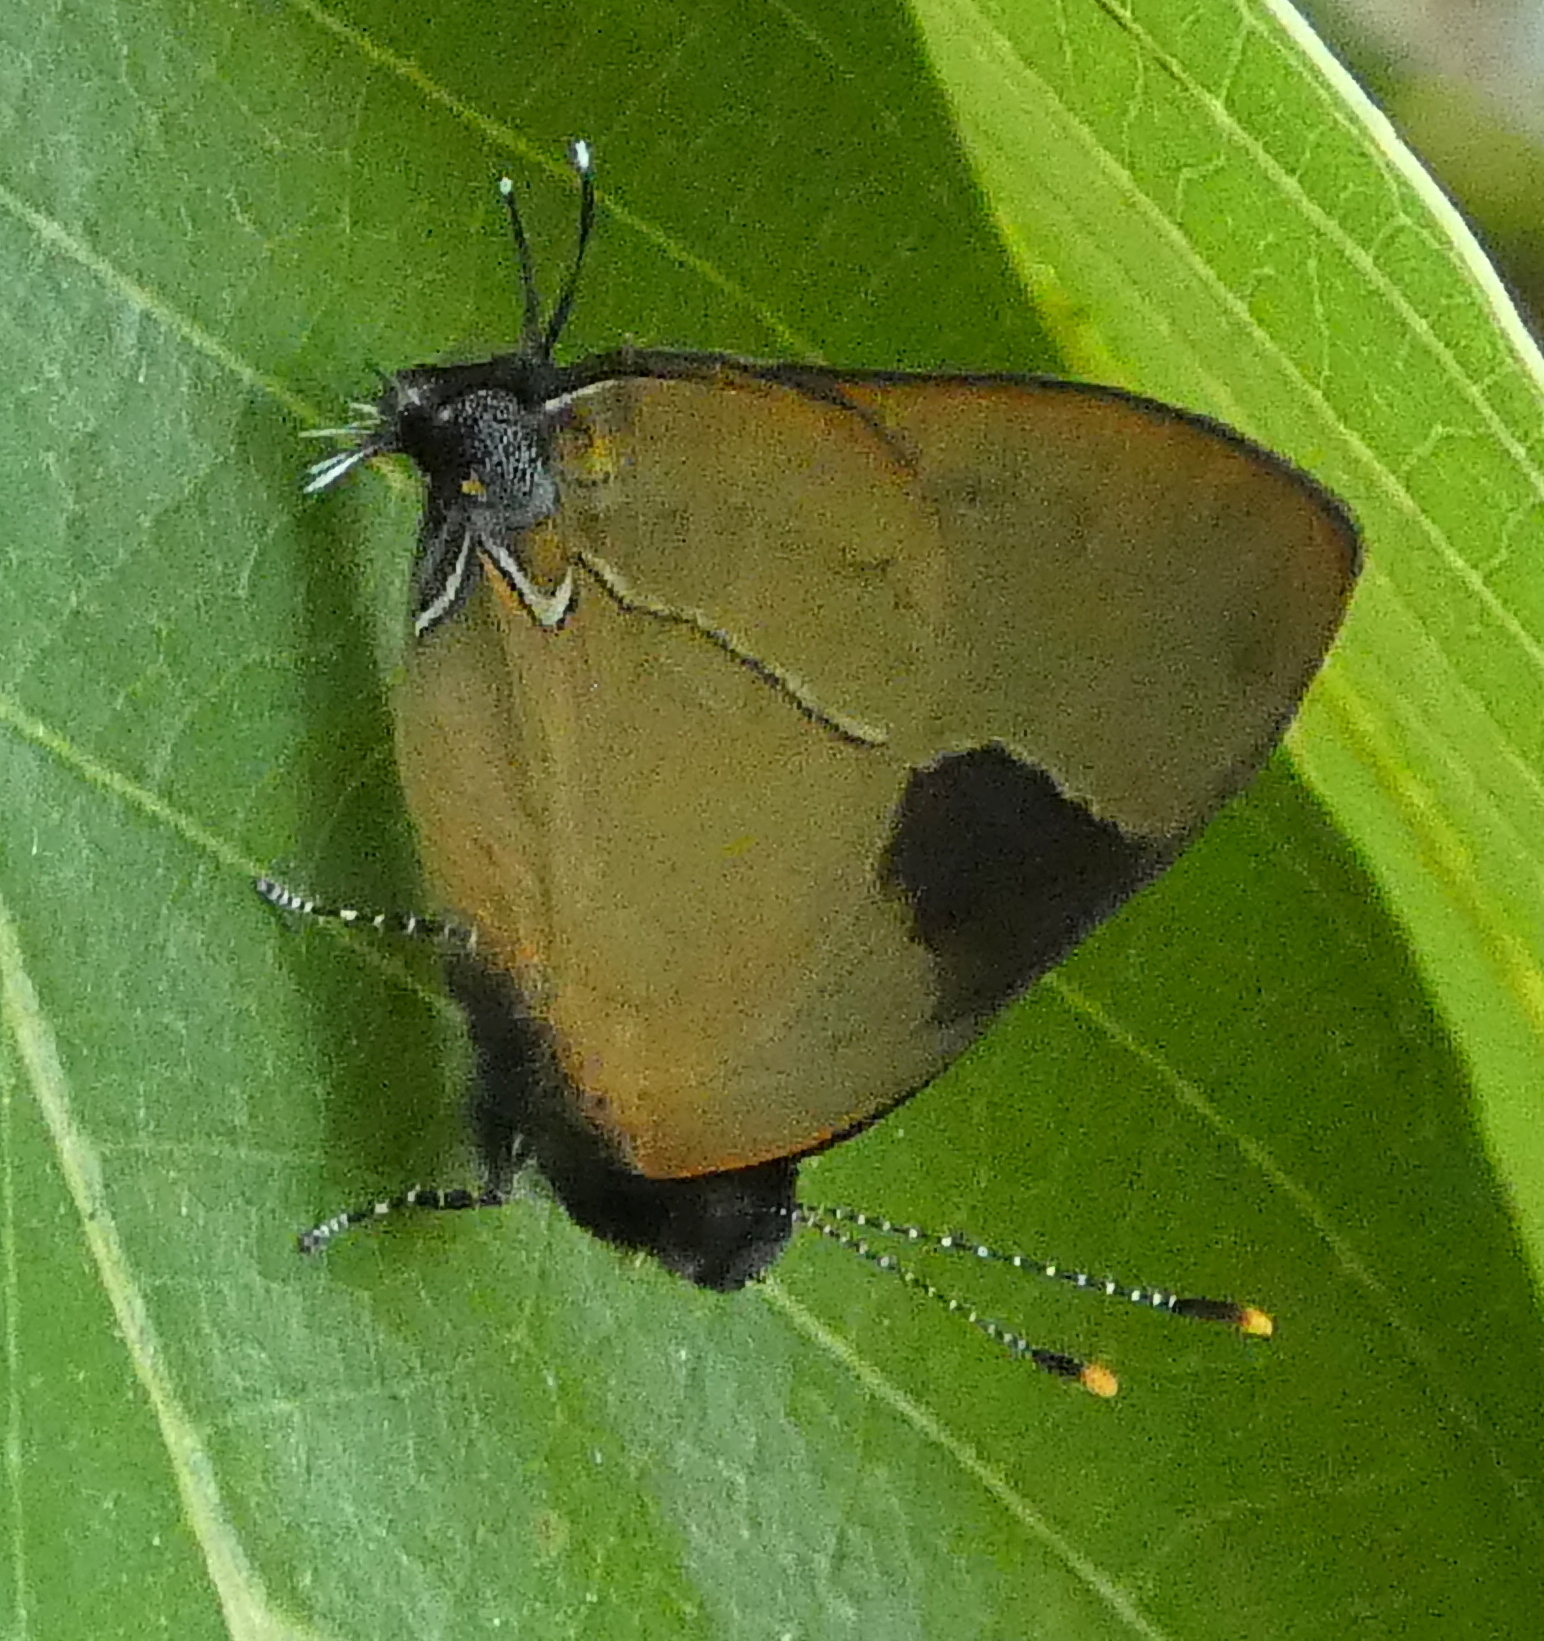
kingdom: Animalia
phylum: Arthropoda
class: Insecta
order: Lepidoptera
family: Lycaenidae
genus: Calycopis
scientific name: Calycopis calus
